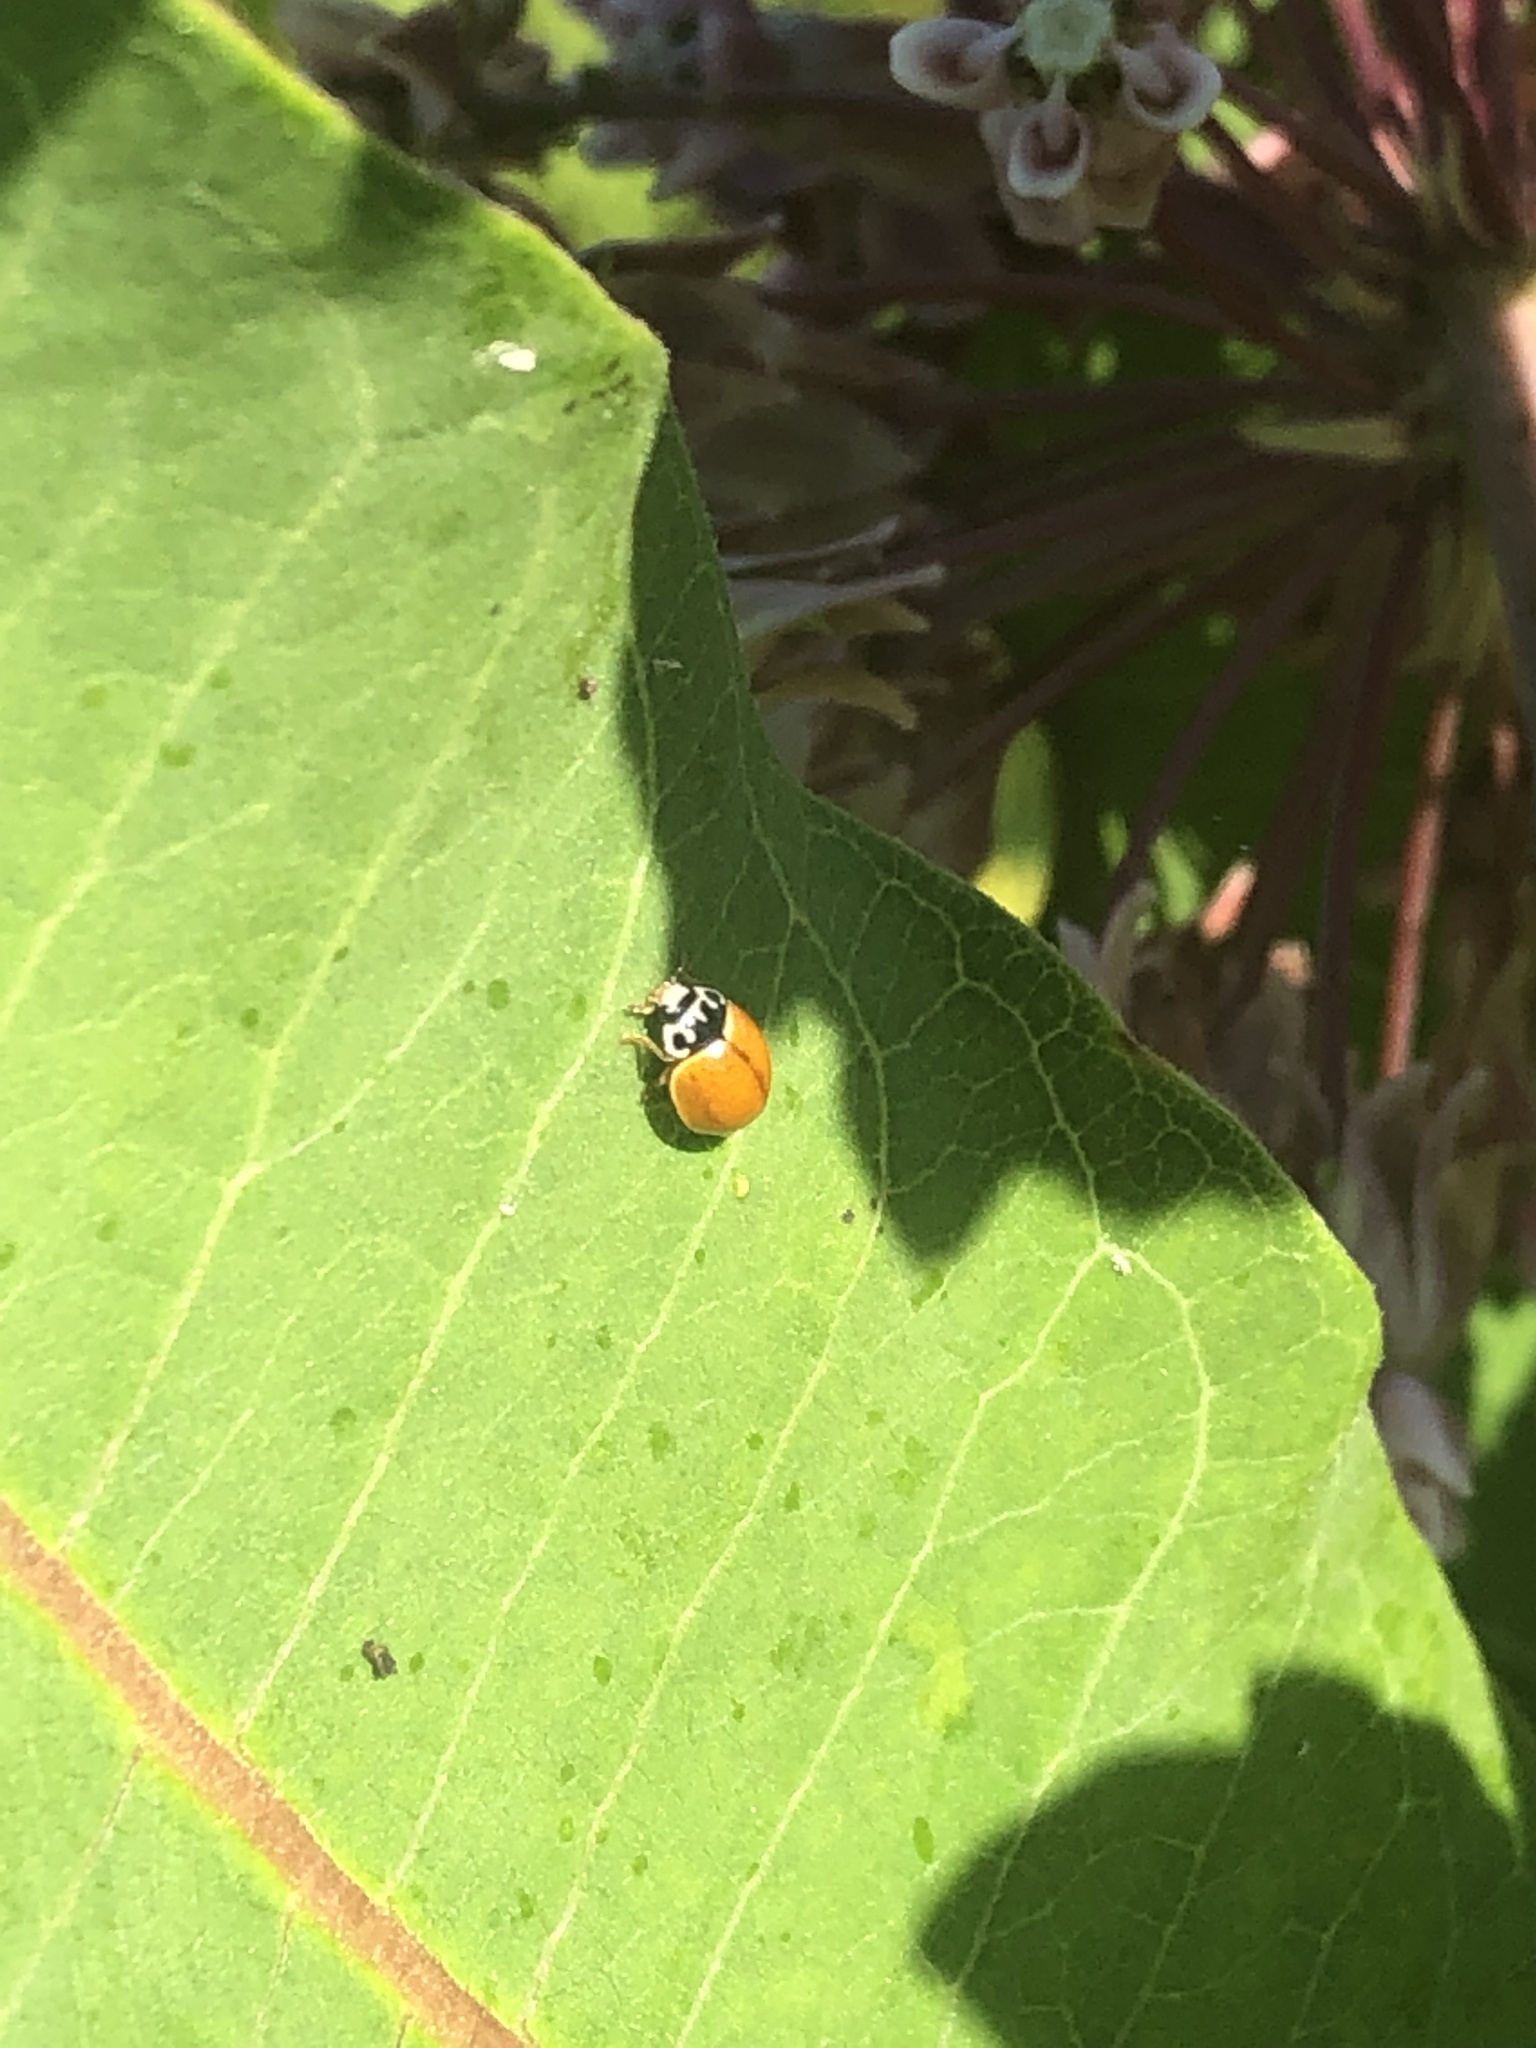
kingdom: Animalia
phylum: Arthropoda
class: Insecta
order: Coleoptera
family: Coccinellidae
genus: Cycloneda
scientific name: Cycloneda munda
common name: Polished lady beetle
